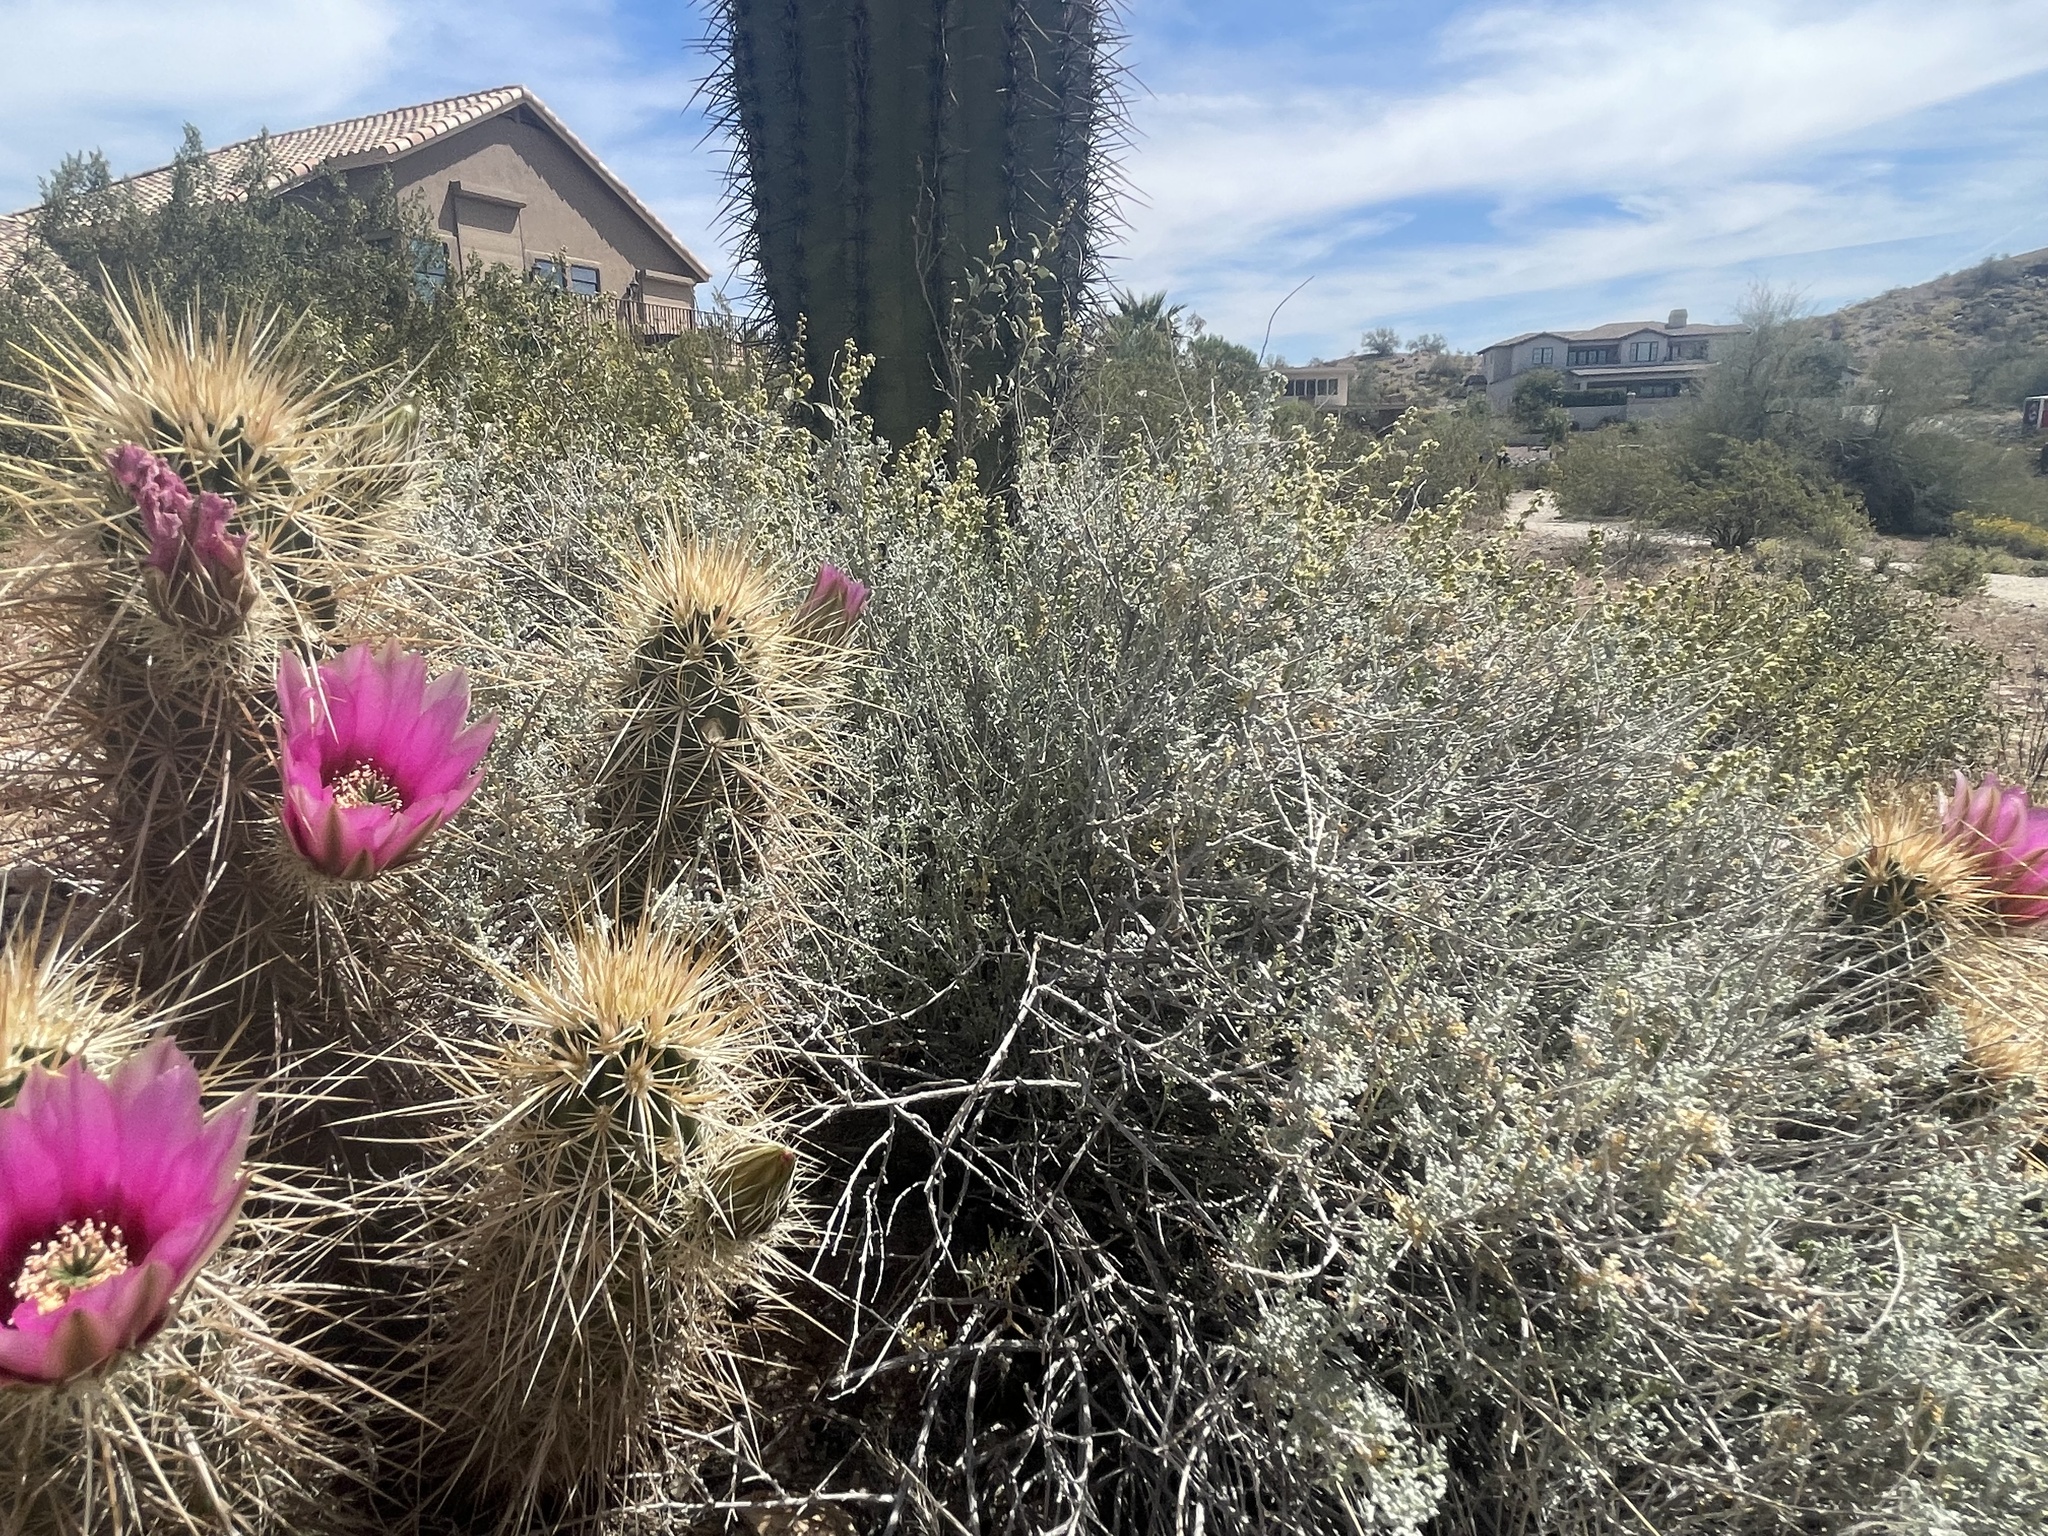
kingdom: Plantae
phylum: Tracheophyta
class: Magnoliopsida
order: Caryophyllales
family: Cactaceae
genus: Echinocereus
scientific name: Echinocereus engelmannii
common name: Engelmann's hedgehog cactus
